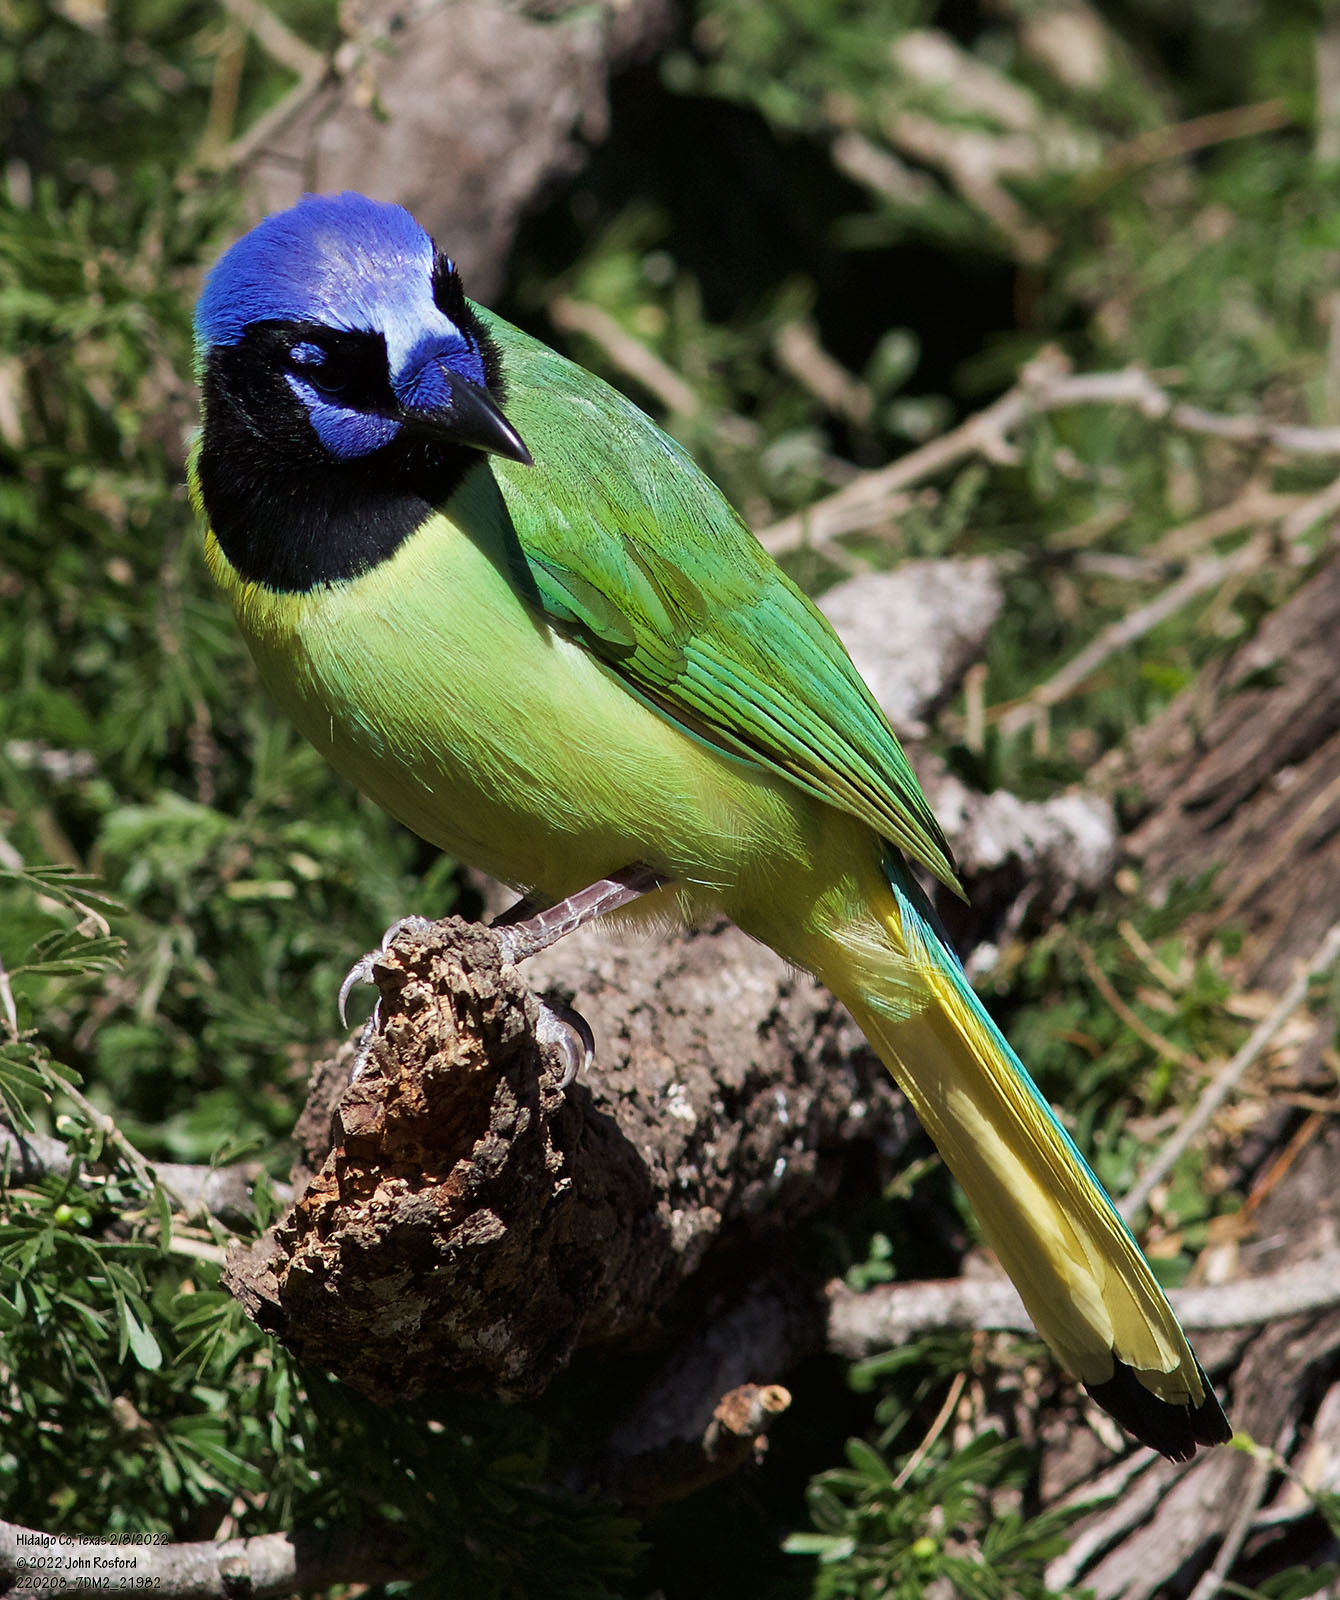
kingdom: Animalia
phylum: Chordata
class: Aves
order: Passeriformes
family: Corvidae
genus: Cyanocorax
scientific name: Cyanocorax yncas
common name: Green jay
